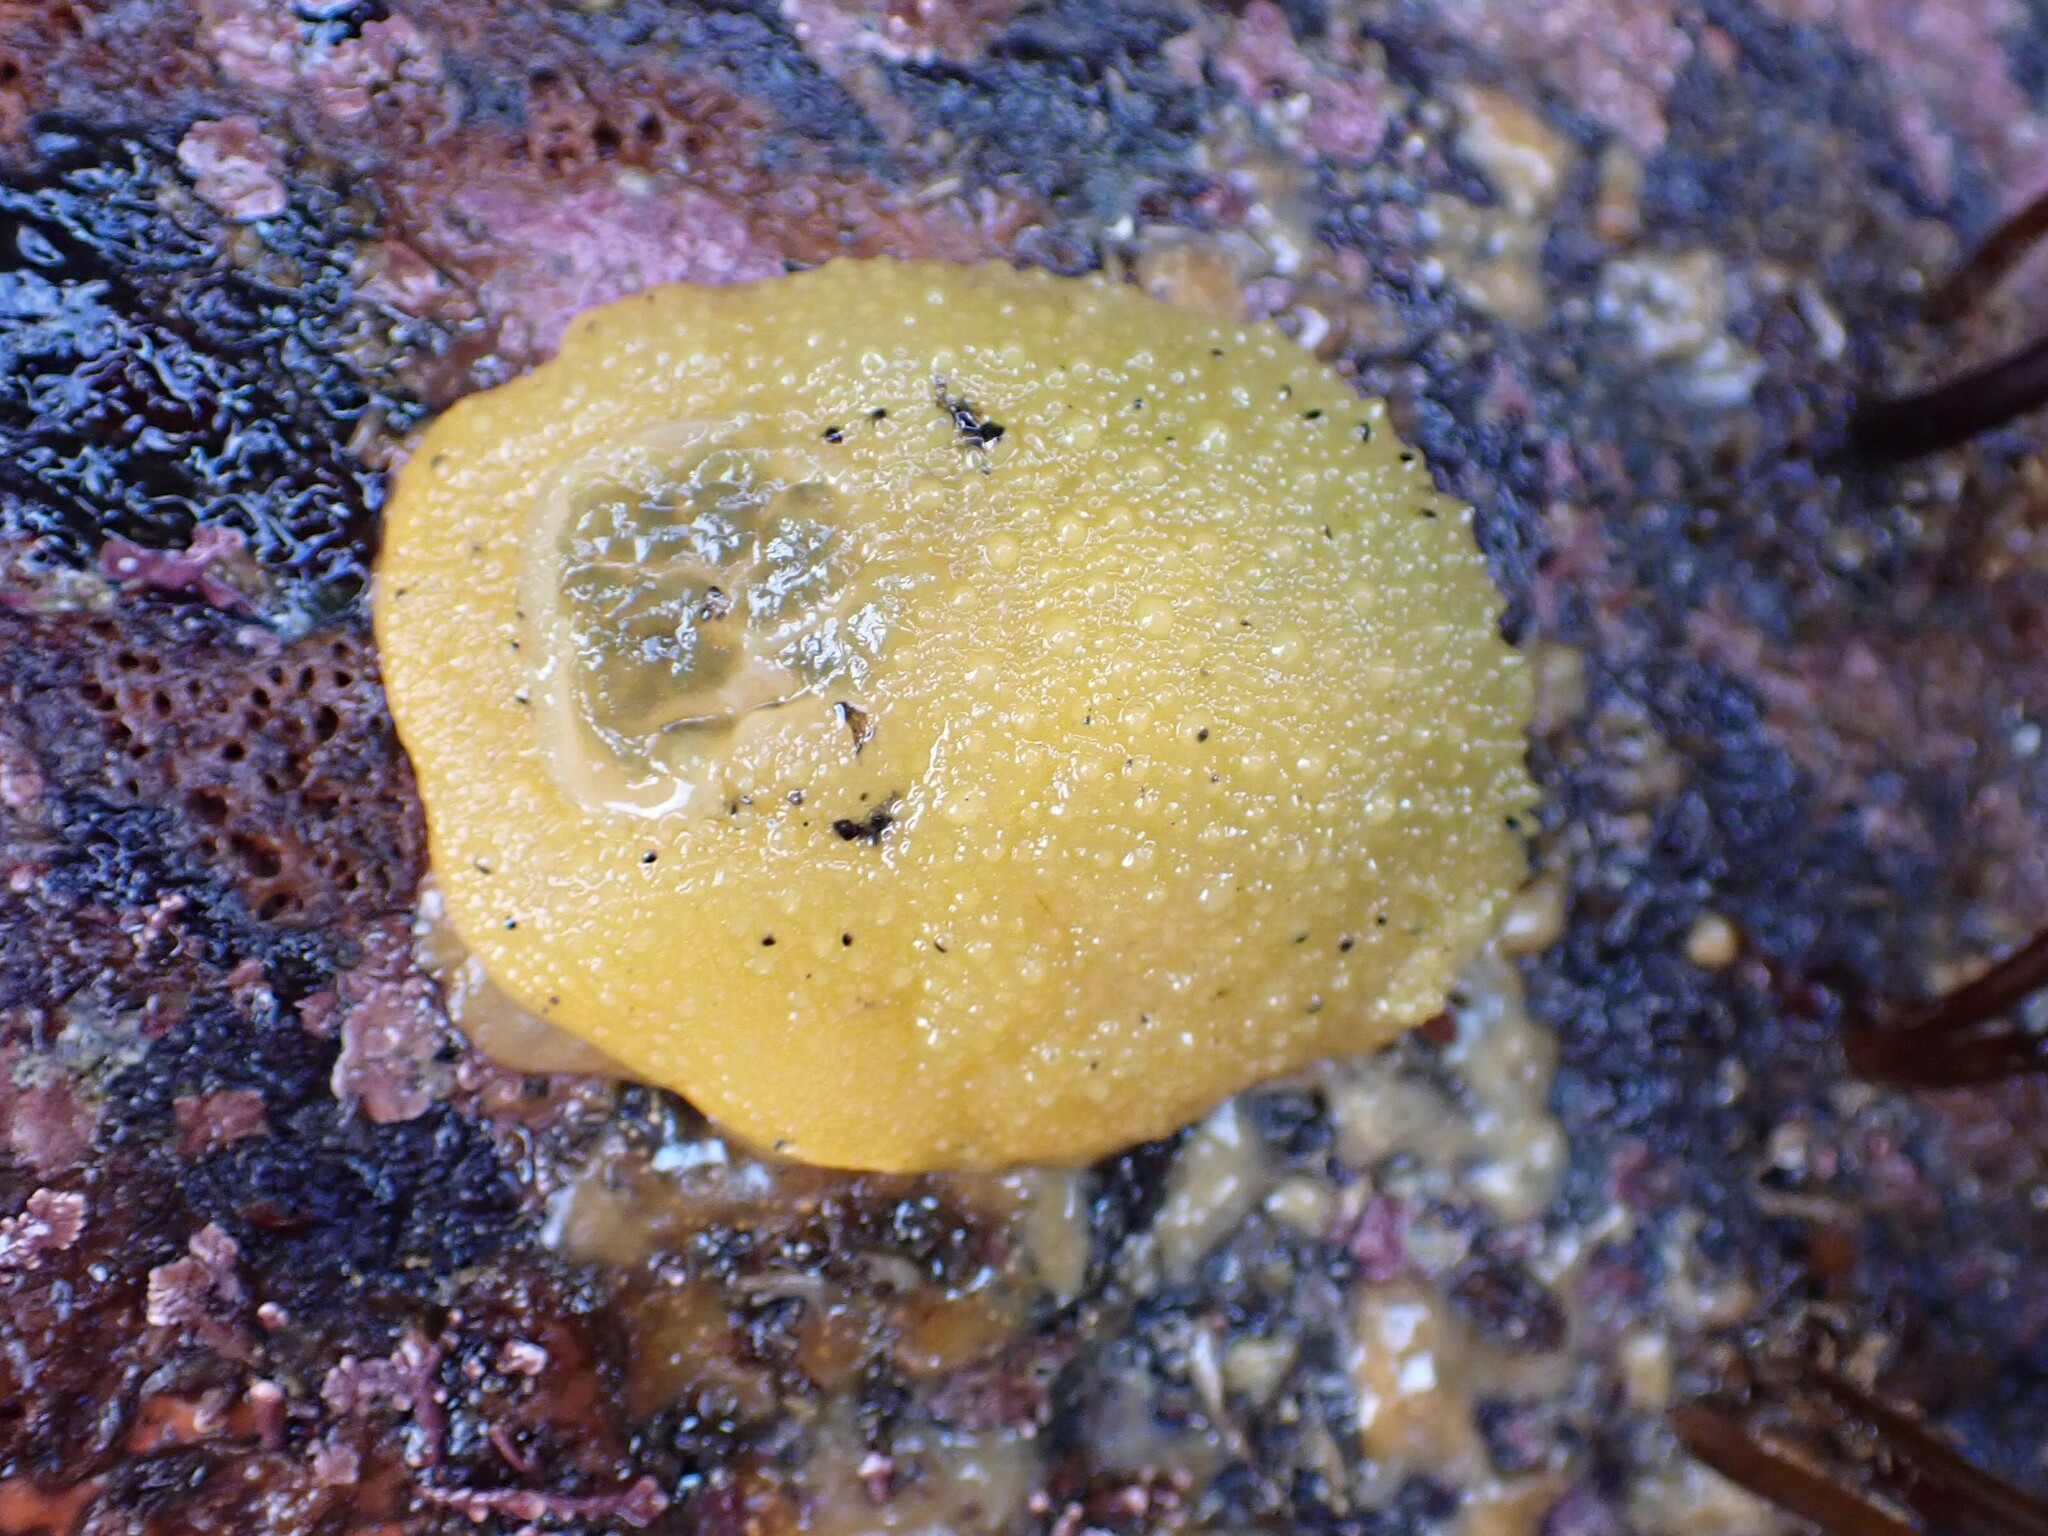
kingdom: Animalia
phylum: Mollusca
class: Gastropoda
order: Nudibranchia
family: Dorididae
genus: Doris
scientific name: Doris montereyensis
